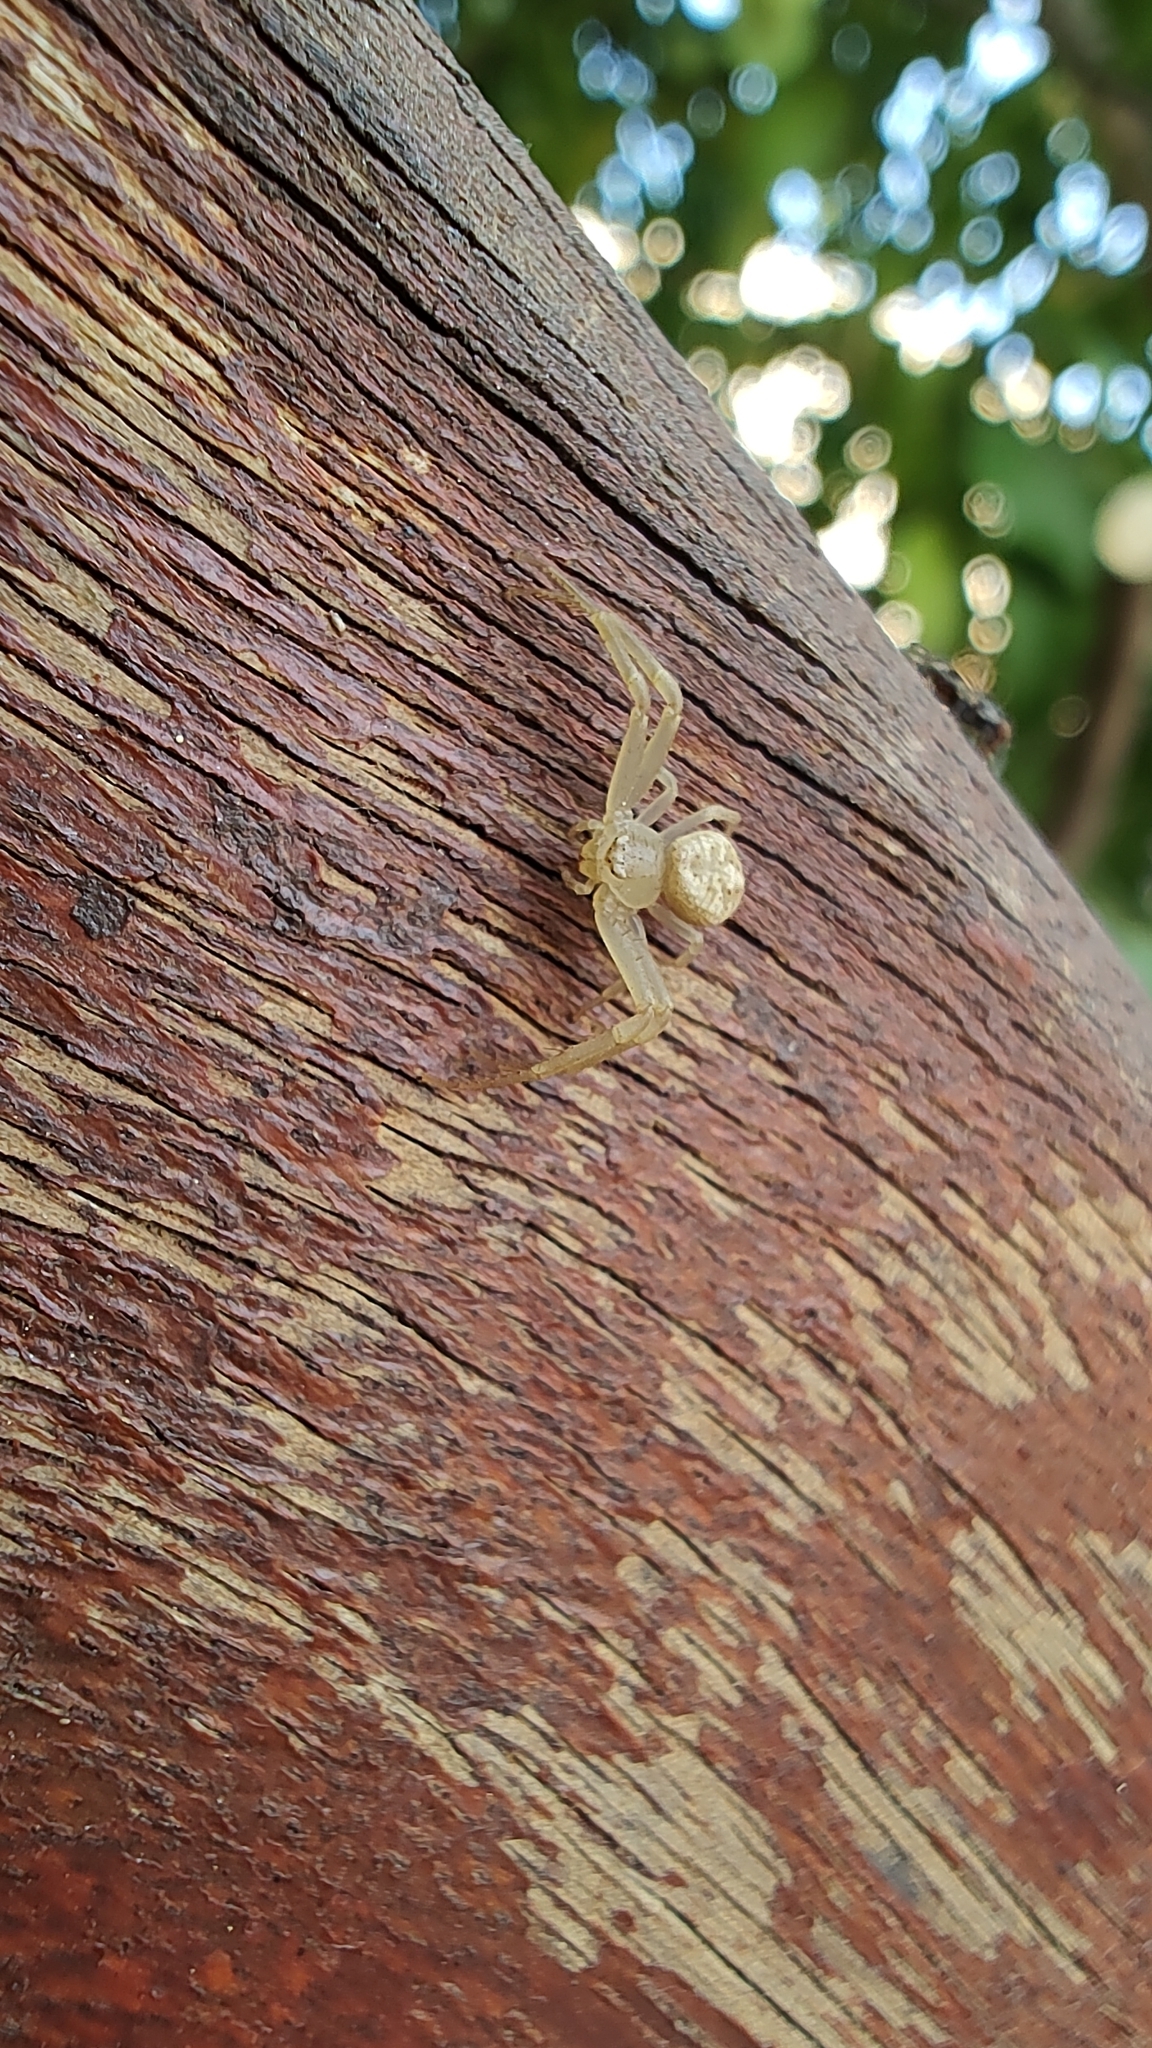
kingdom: Animalia
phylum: Arthropoda
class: Arachnida
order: Araneae
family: Thomisidae
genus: Misumenops
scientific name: Misumenops
